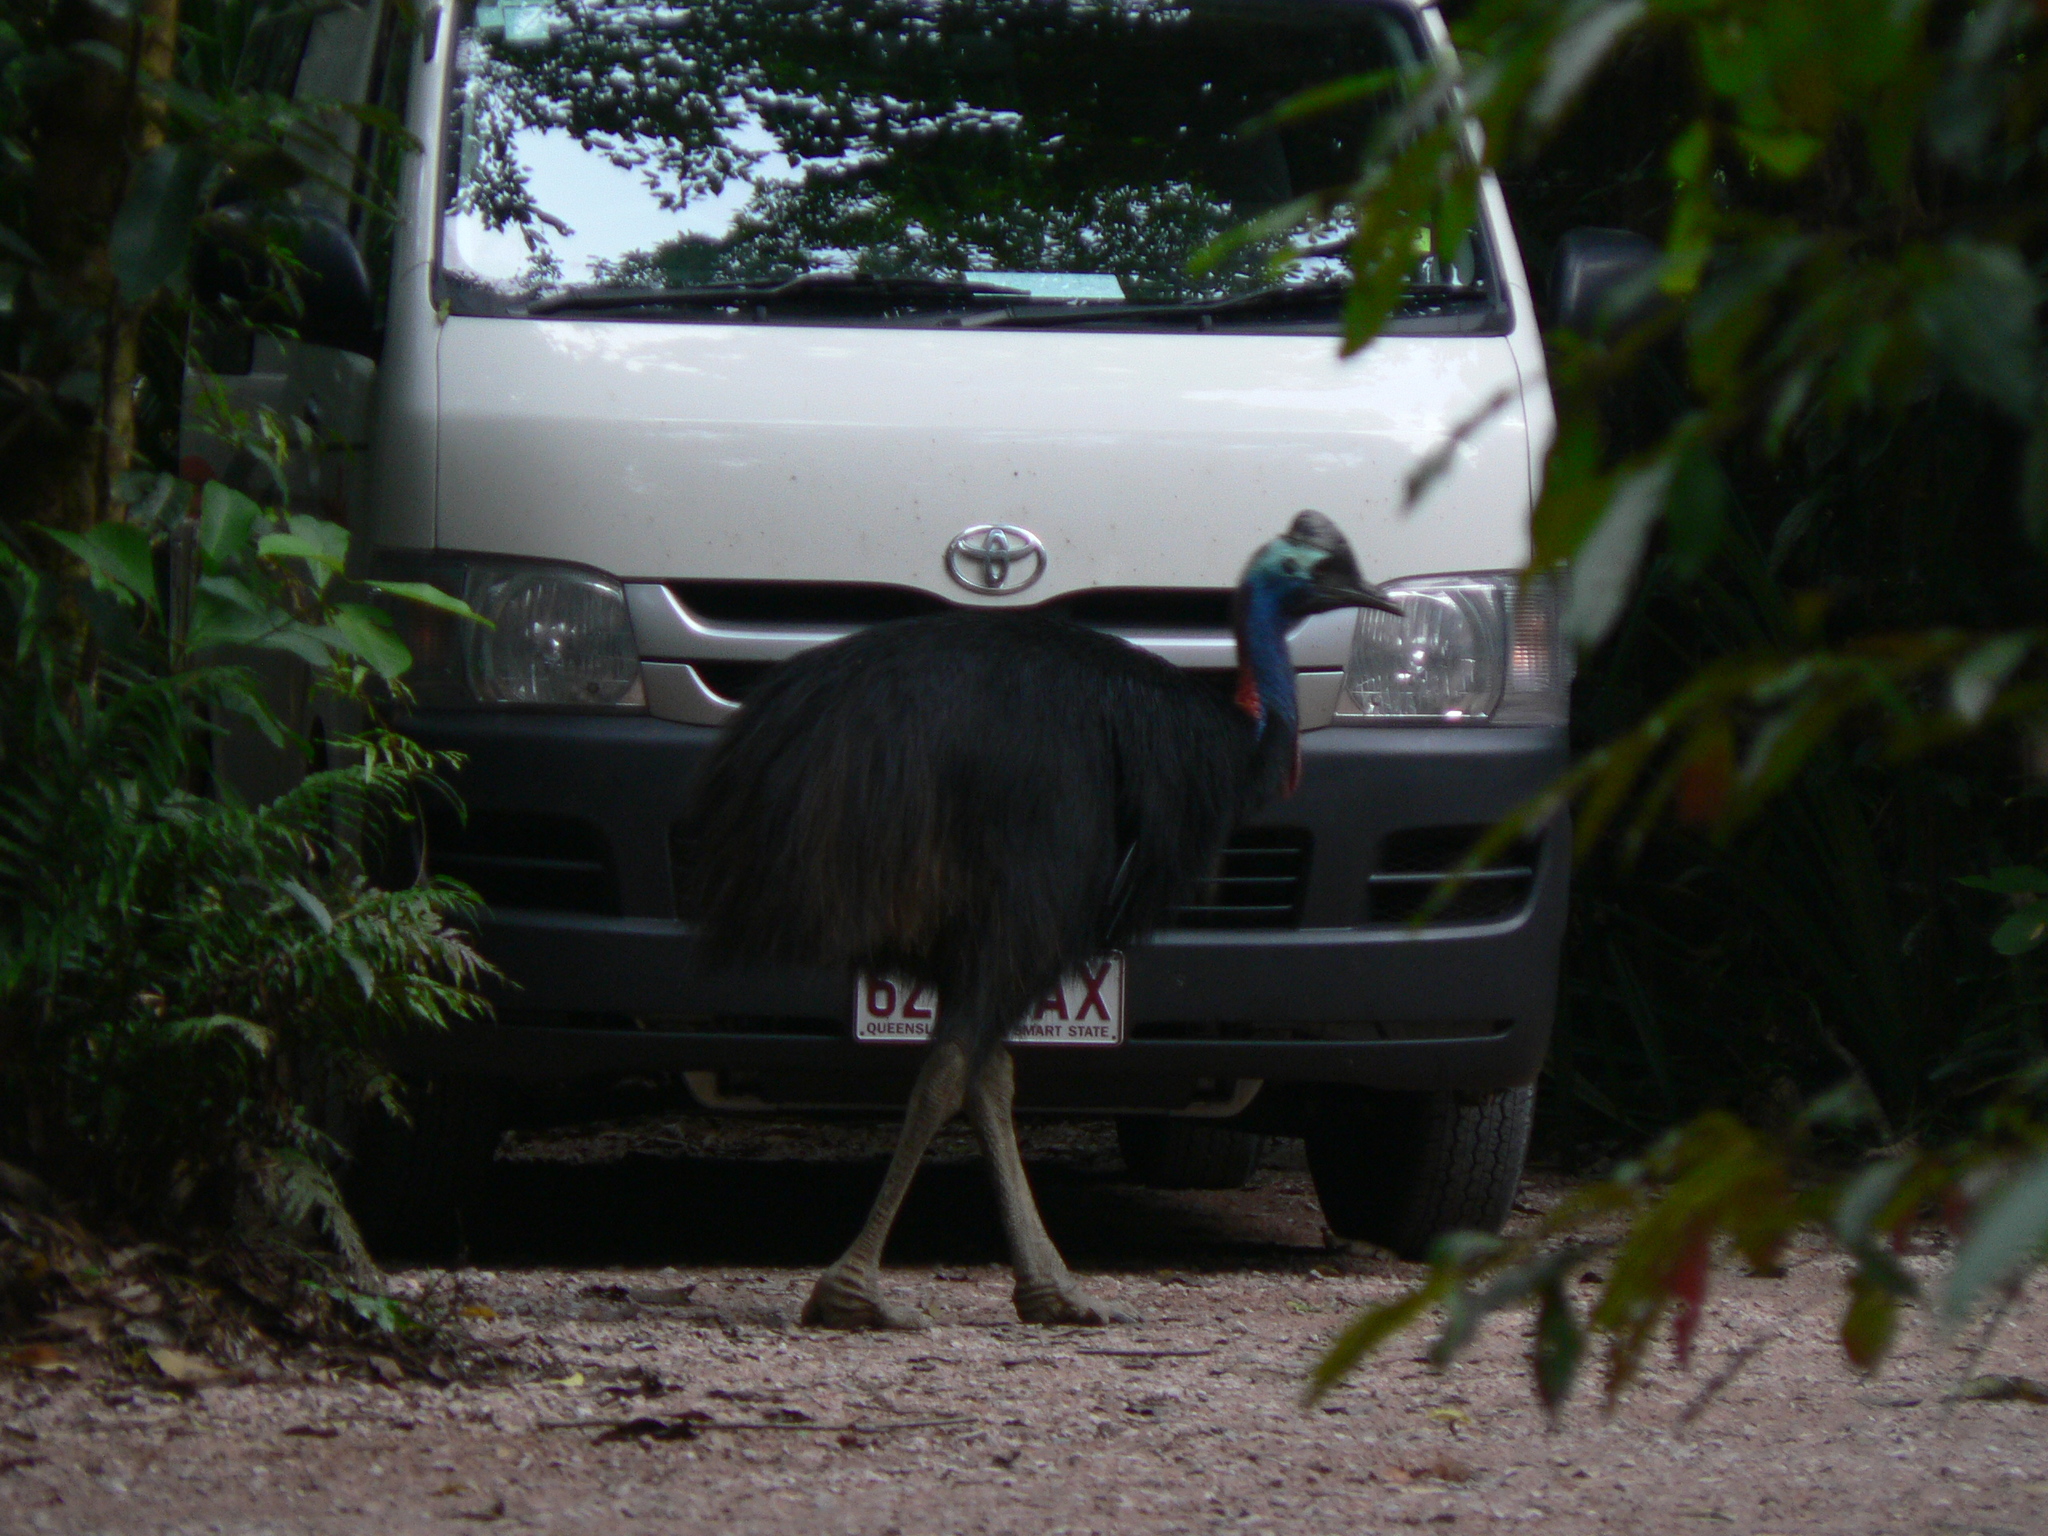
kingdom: Animalia
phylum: Chordata
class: Aves
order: Casuariiformes
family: Casuariidae
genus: Casuarius
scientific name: Casuarius casuarius
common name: Southern cassowary
